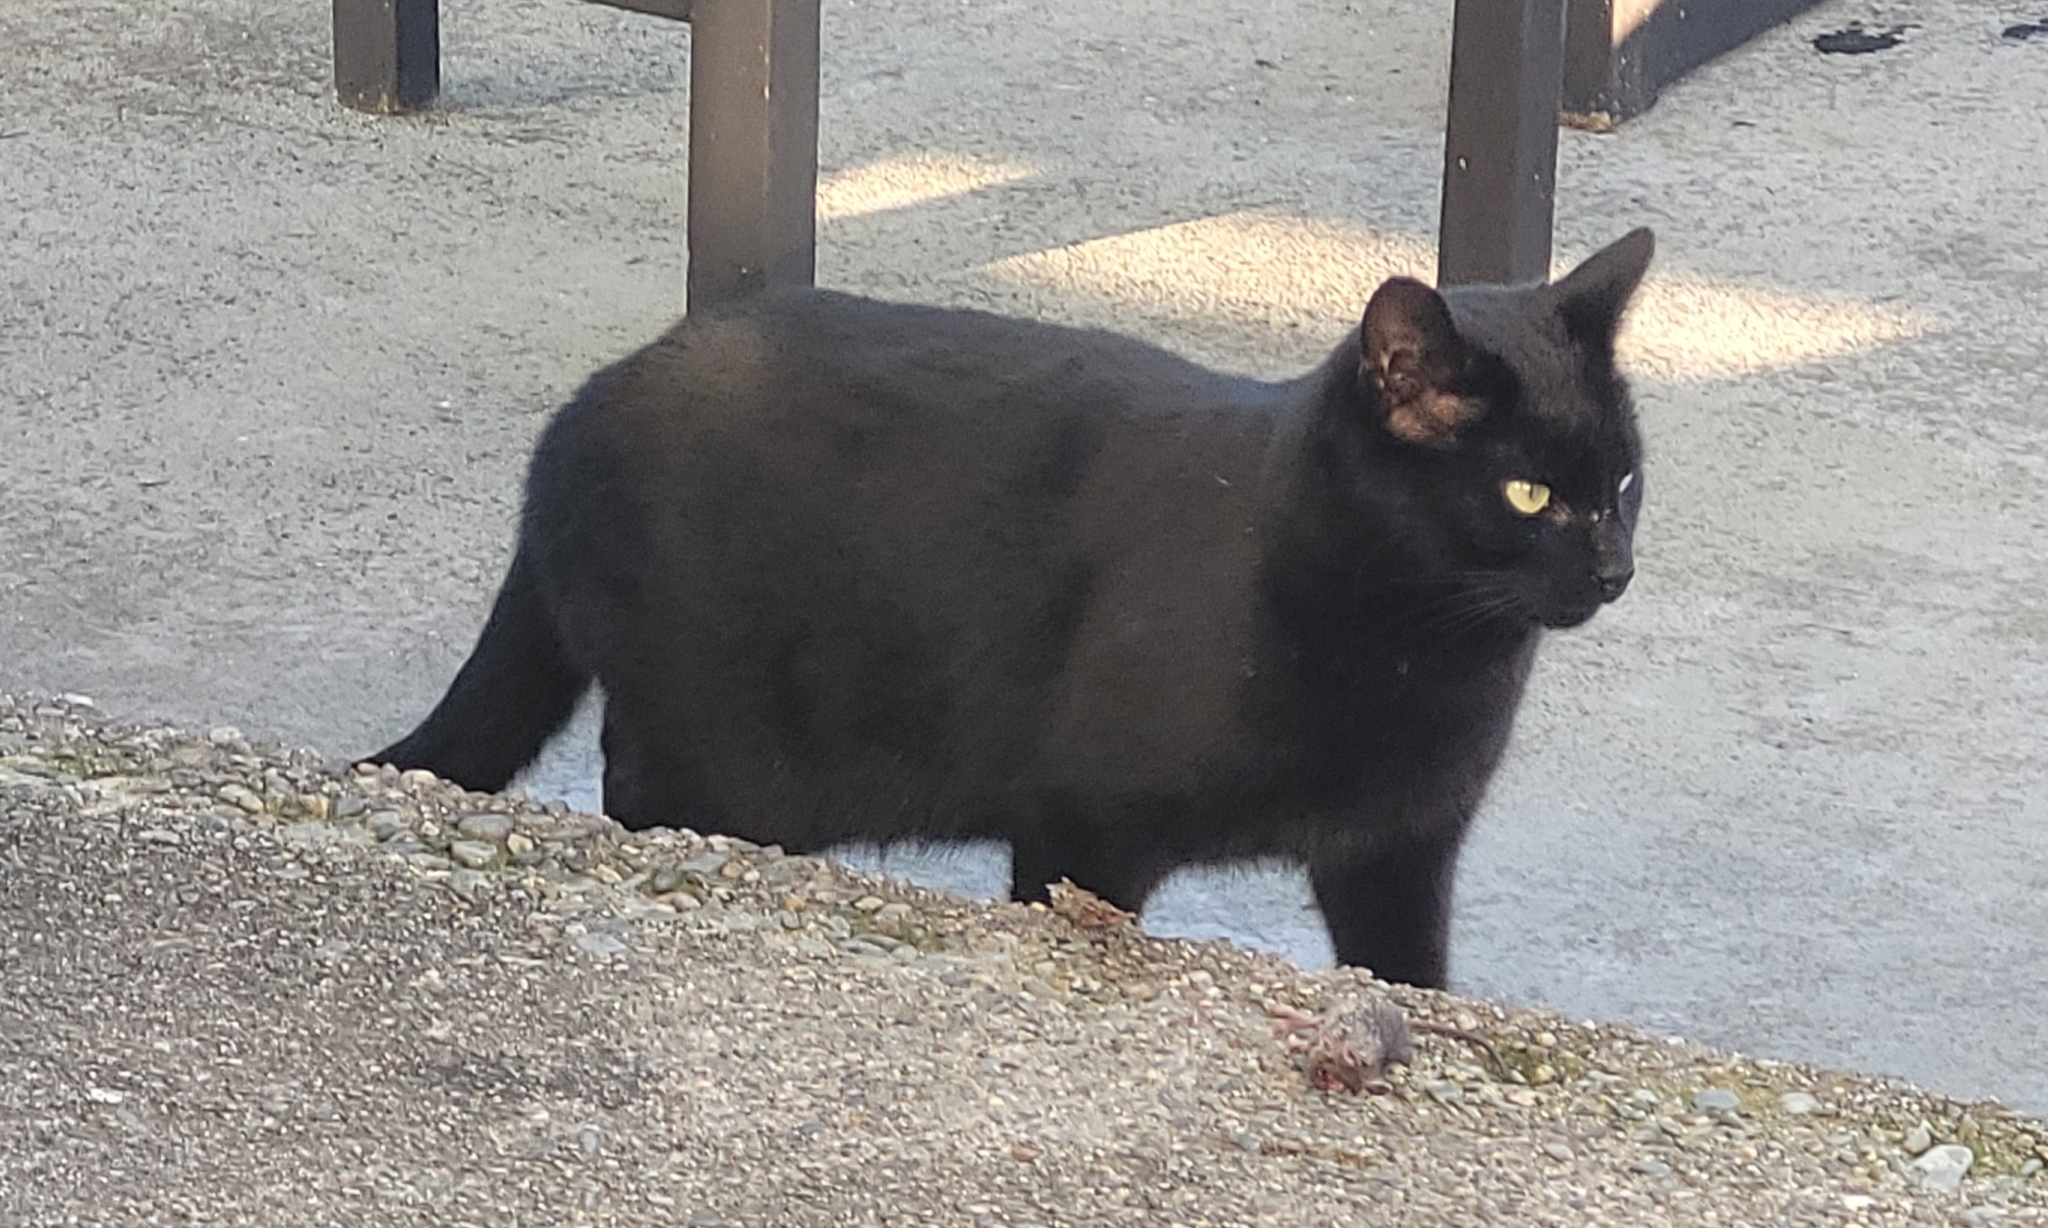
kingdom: Animalia
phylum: Chordata
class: Mammalia
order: Carnivora
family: Felidae
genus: Felis
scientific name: Felis catus
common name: Domestic cat
